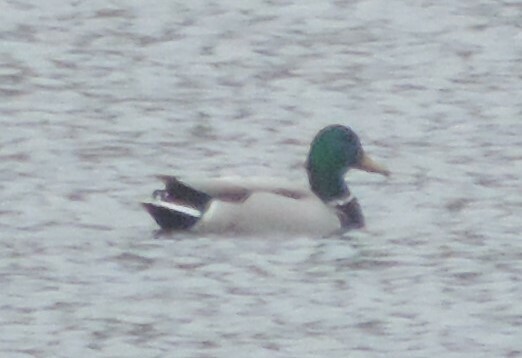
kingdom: Animalia
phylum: Chordata
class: Aves
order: Anseriformes
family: Anatidae
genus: Anas
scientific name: Anas platyrhynchos
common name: Mallard
